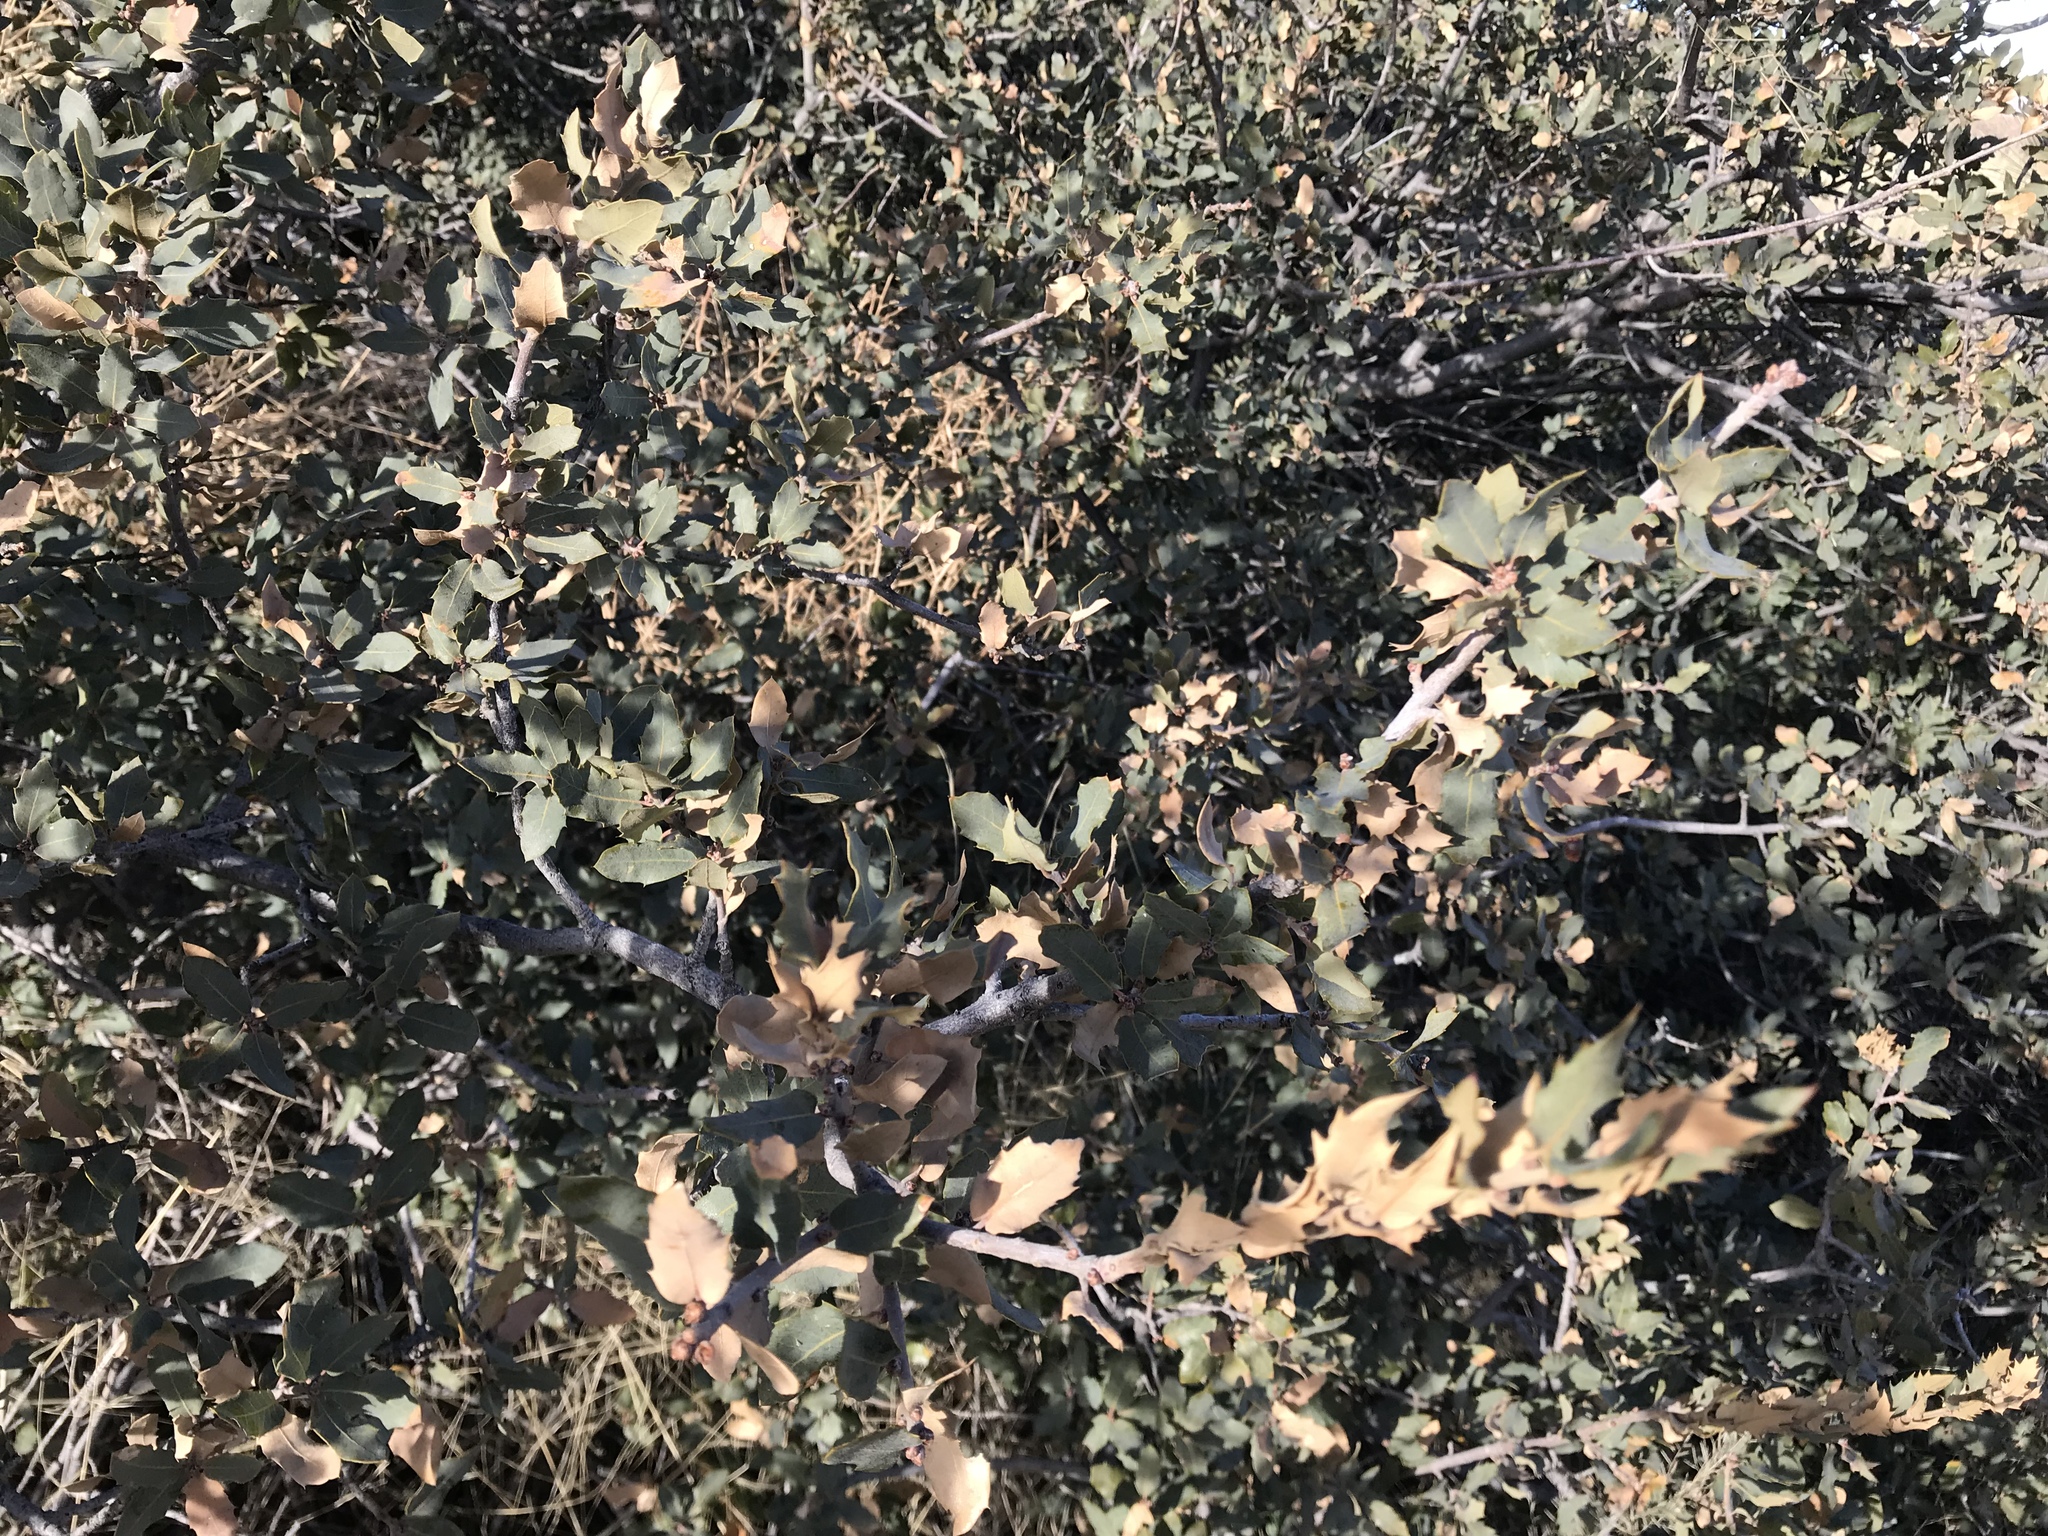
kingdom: Plantae
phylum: Tracheophyta
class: Magnoliopsida
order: Fagales
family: Fagaceae
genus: Quercus
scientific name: Quercus turbinella
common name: Sonoran scrub oak
